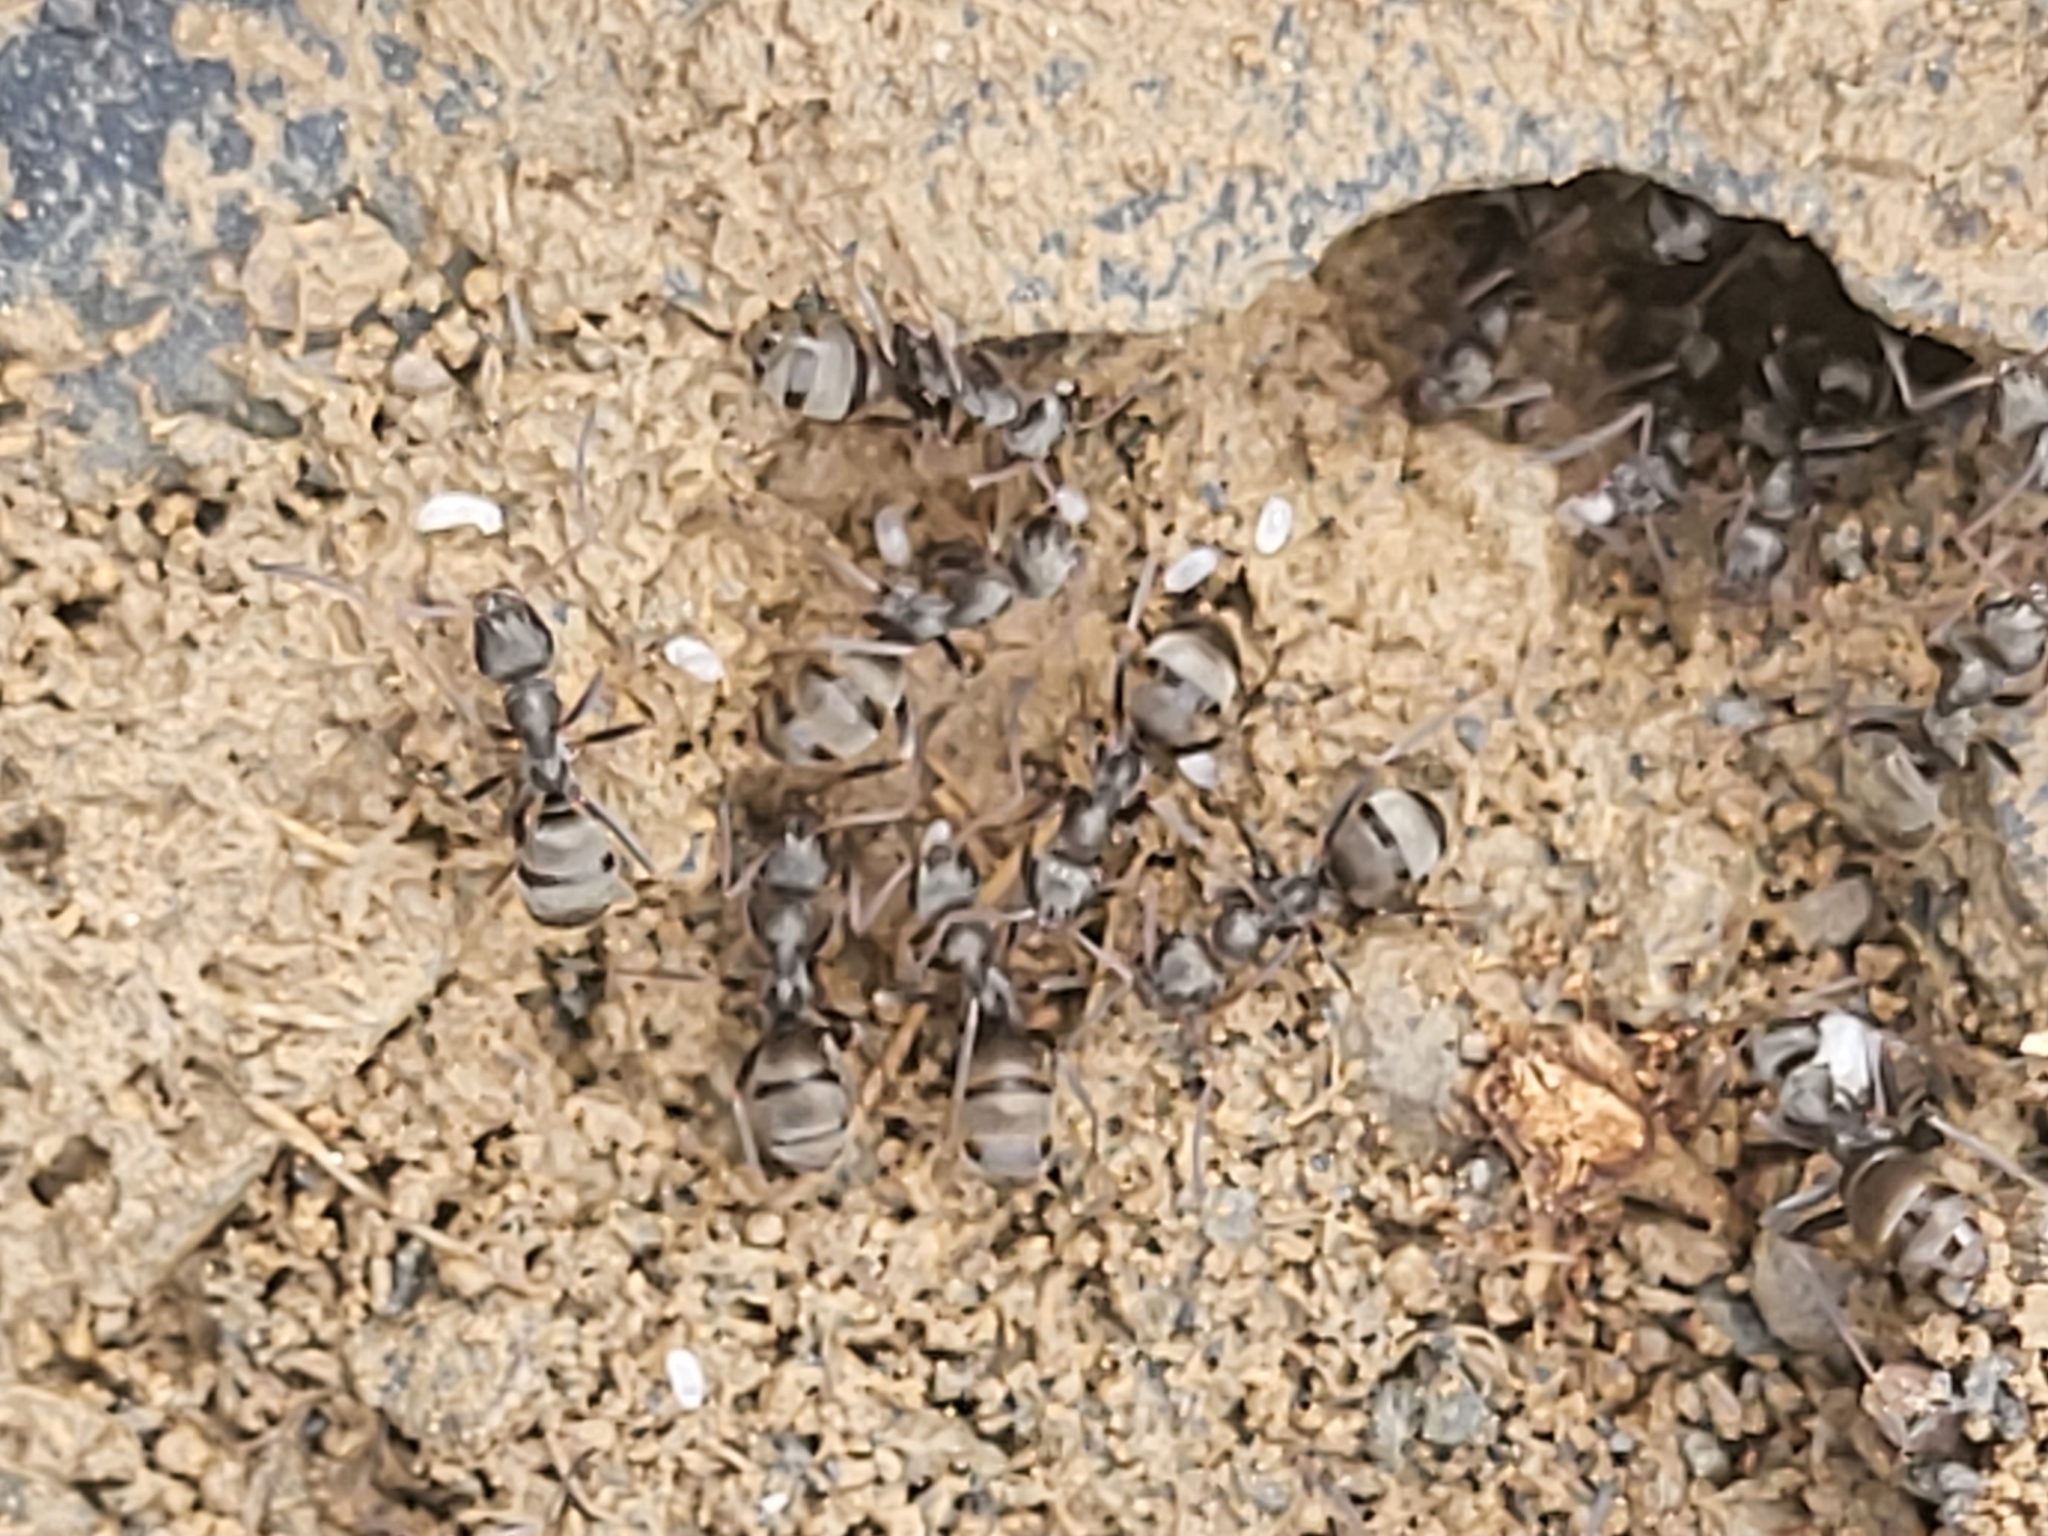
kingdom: Animalia
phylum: Arthropoda
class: Insecta
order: Hymenoptera
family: Formicidae
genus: Formica
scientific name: Formica cinerea
